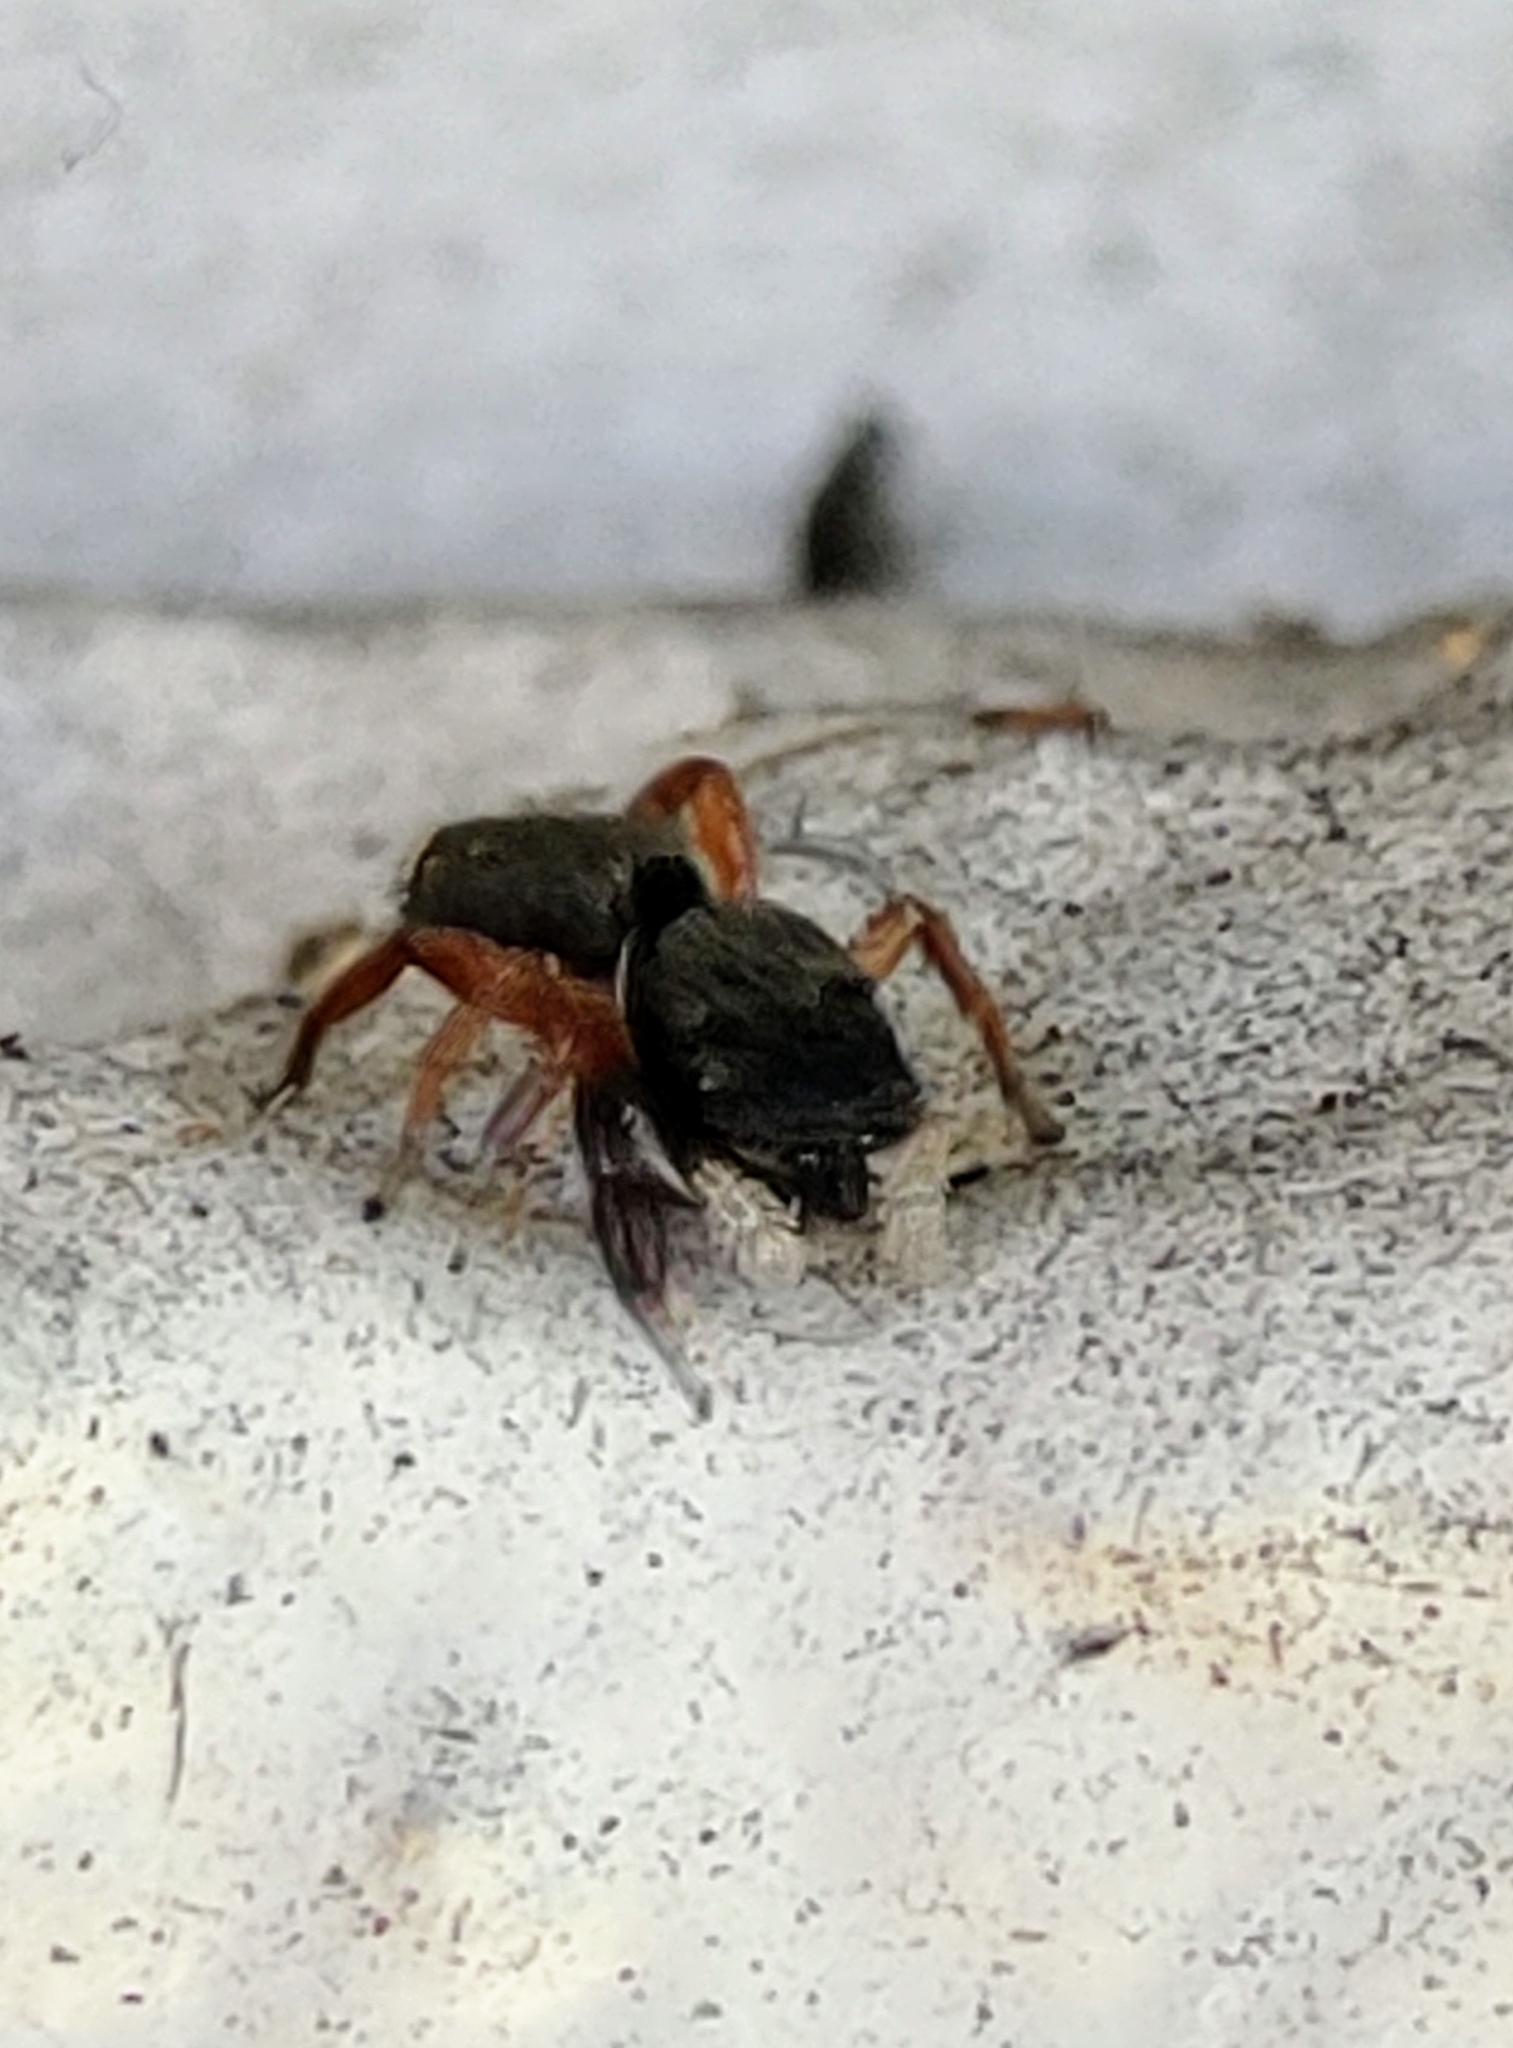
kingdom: Animalia
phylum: Arthropoda
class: Arachnida
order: Araneae
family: Salticidae
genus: Metacyrba
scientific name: Metacyrba punctata
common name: Jumping spiders
